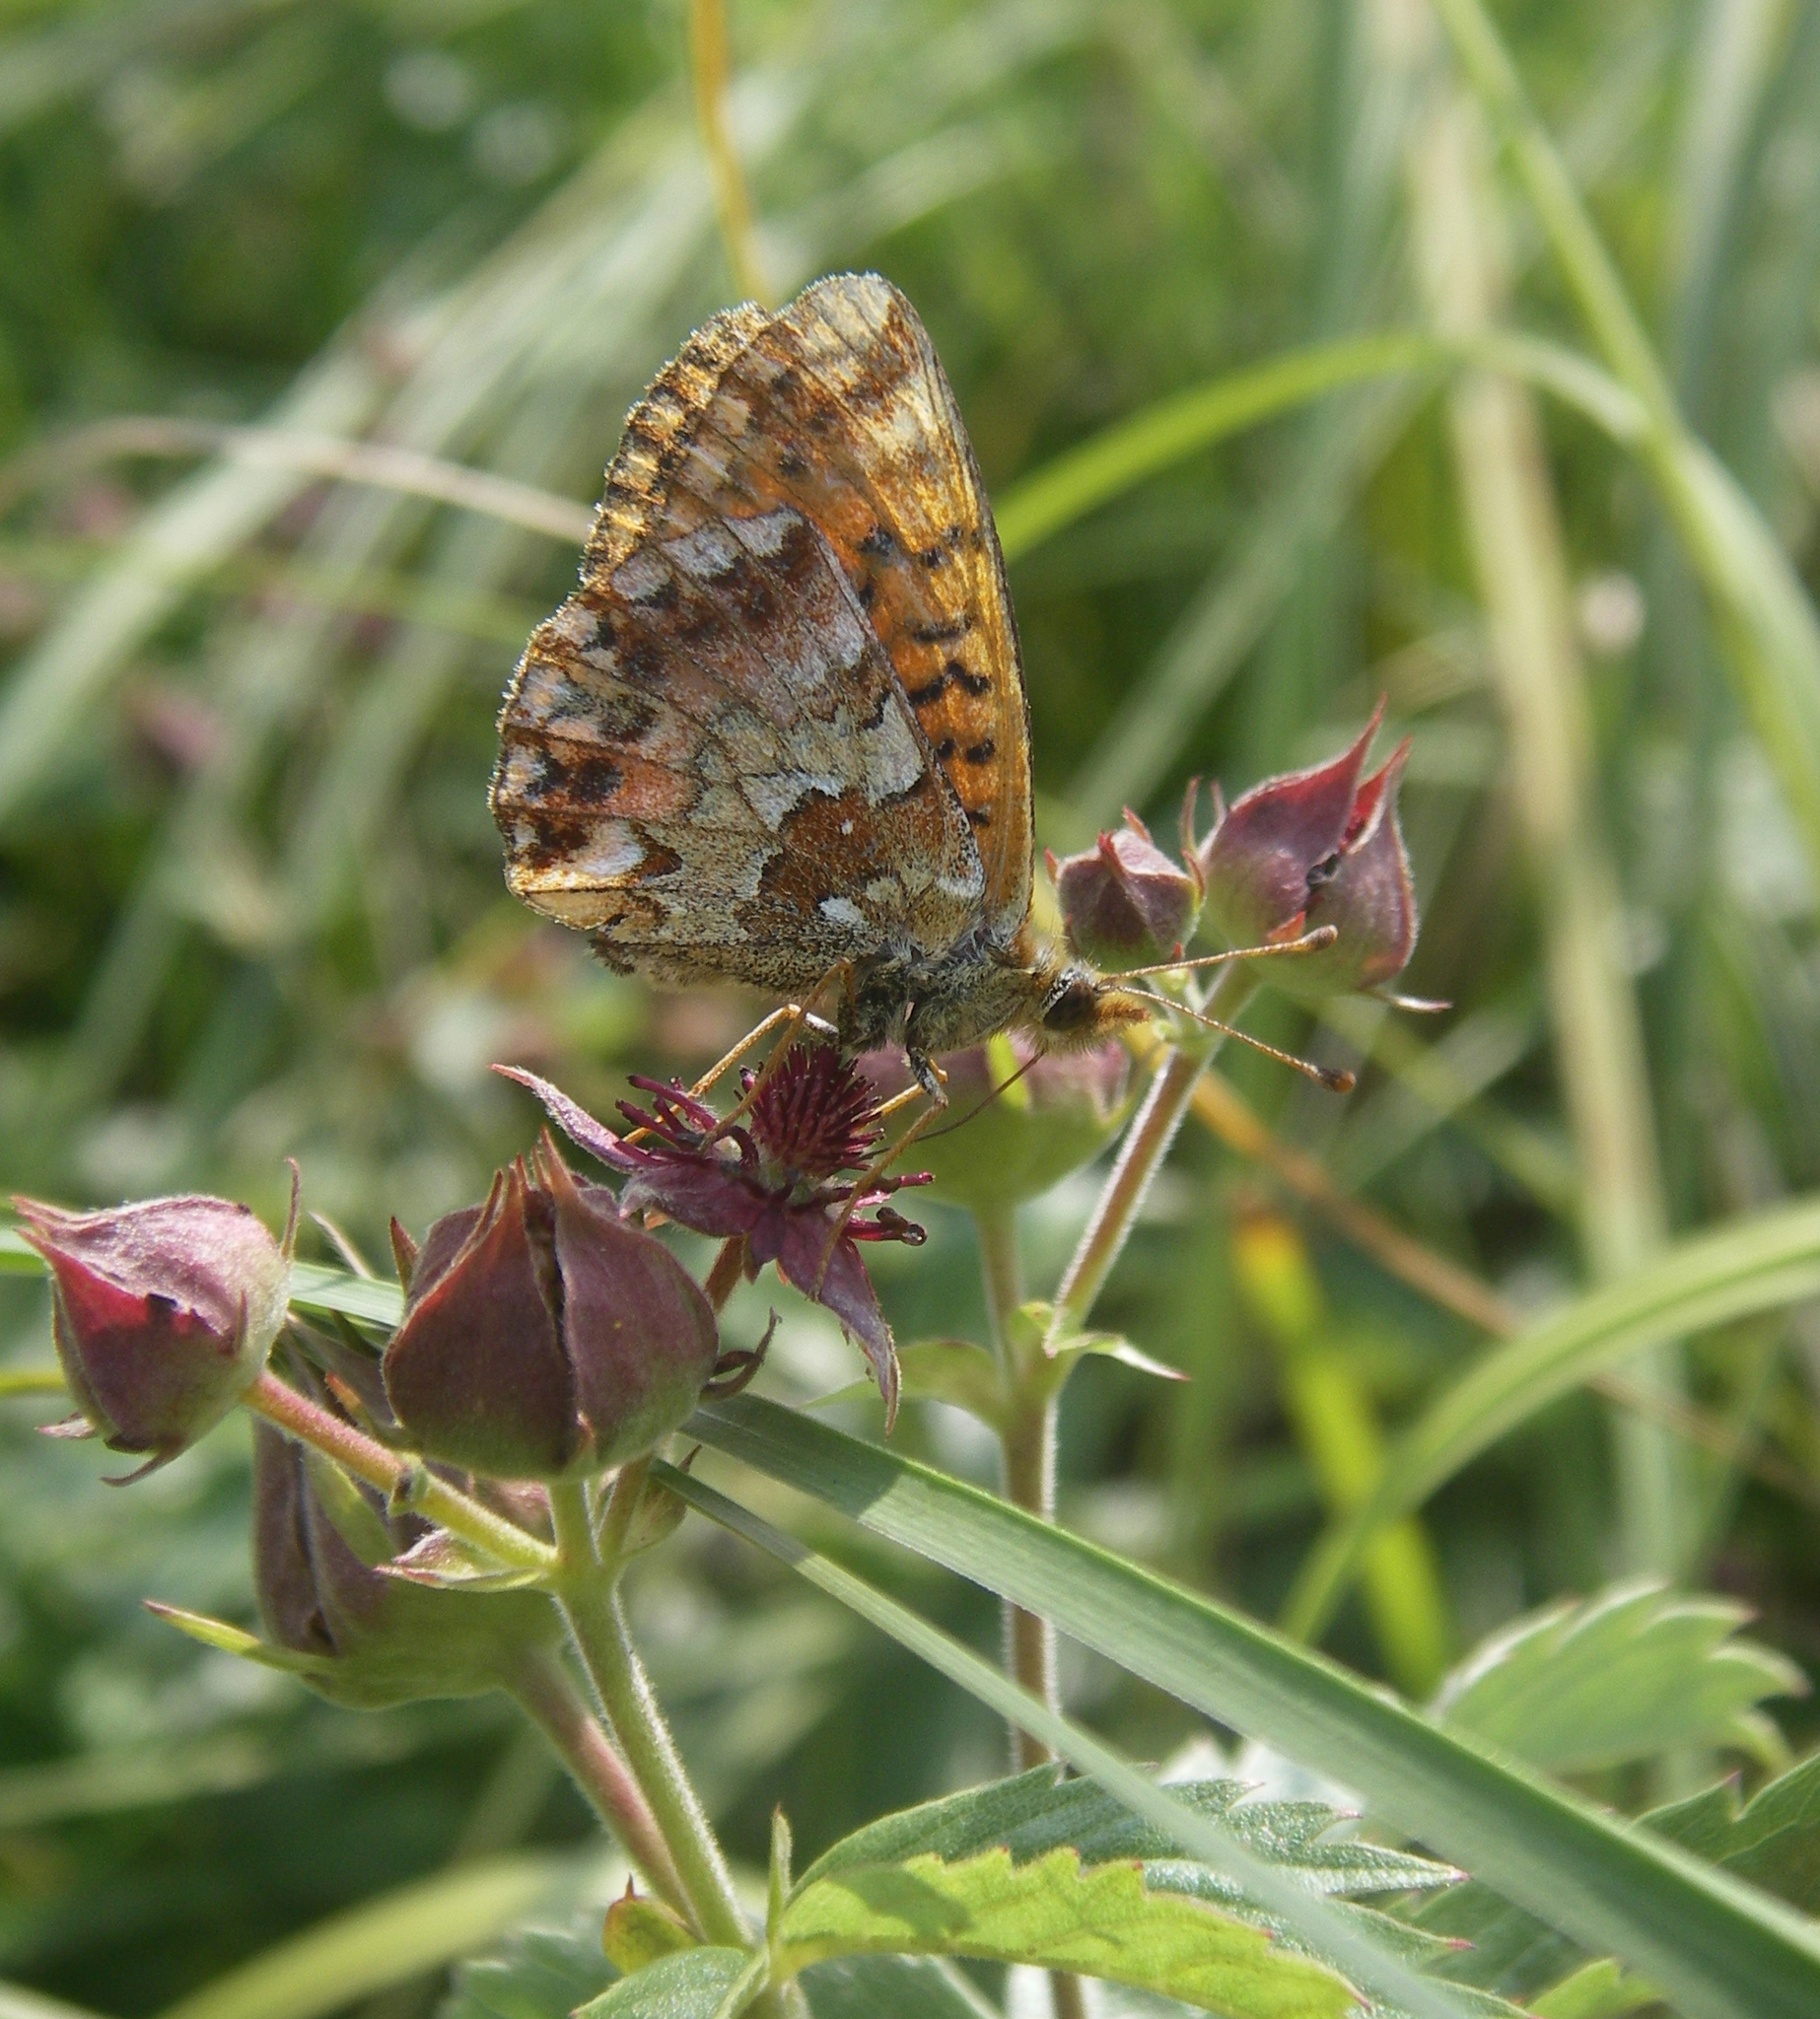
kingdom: Animalia
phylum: Arthropoda
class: Insecta
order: Lepidoptera
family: Nymphalidae
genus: Boloria
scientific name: Boloria aquilonaris
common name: Cranberry fritillary
